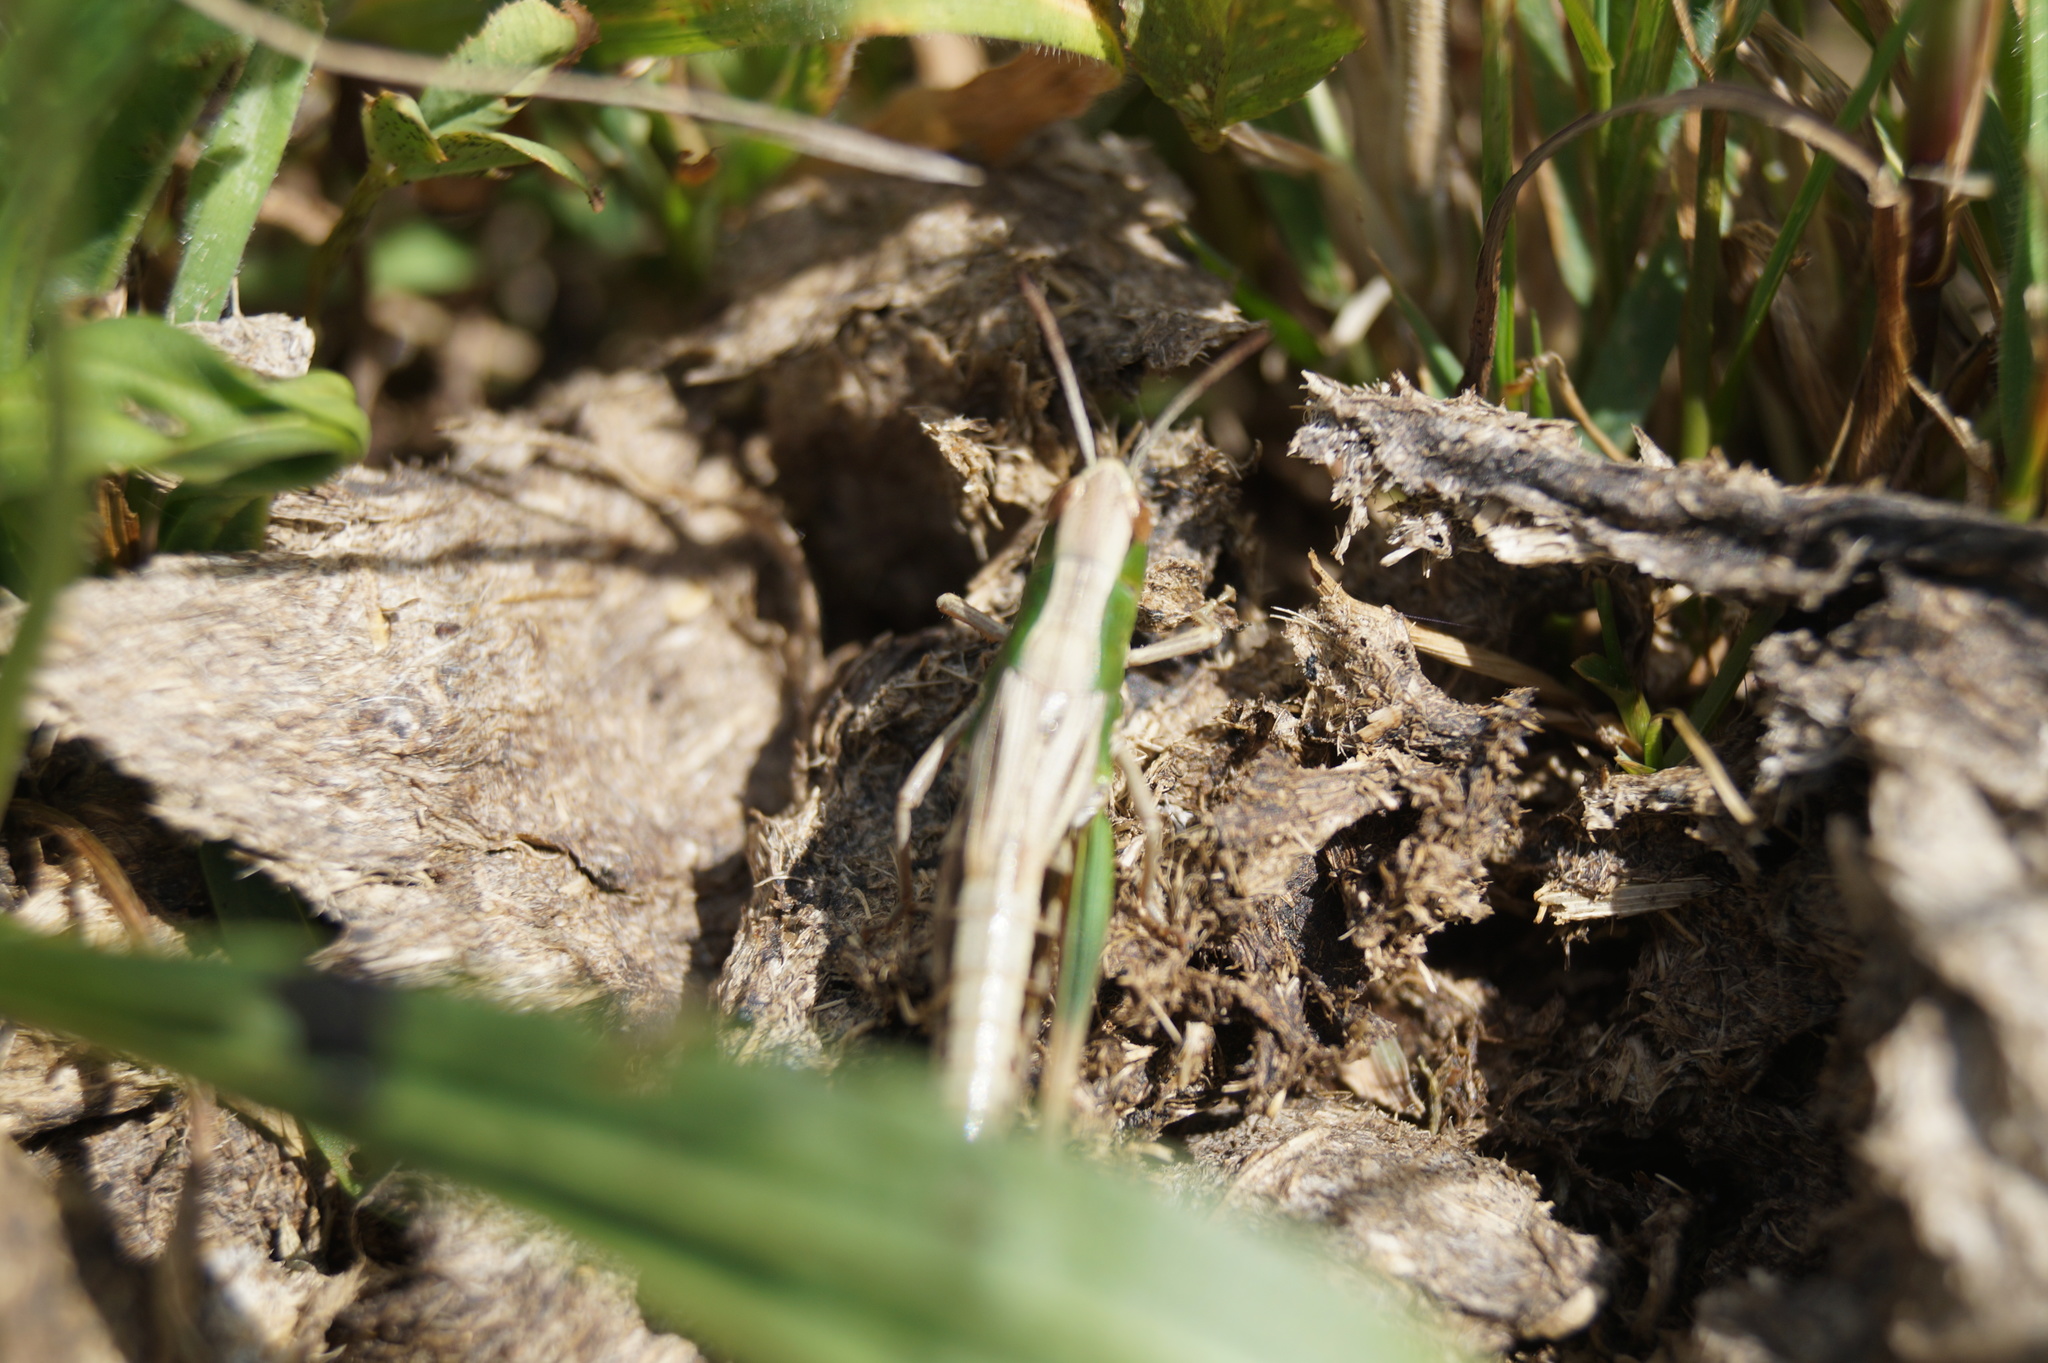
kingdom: Animalia
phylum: Arthropoda
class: Insecta
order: Orthoptera
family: Acrididae
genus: Pseudochorthippus
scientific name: Pseudochorthippus parallelus
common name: Meadow grasshopper
